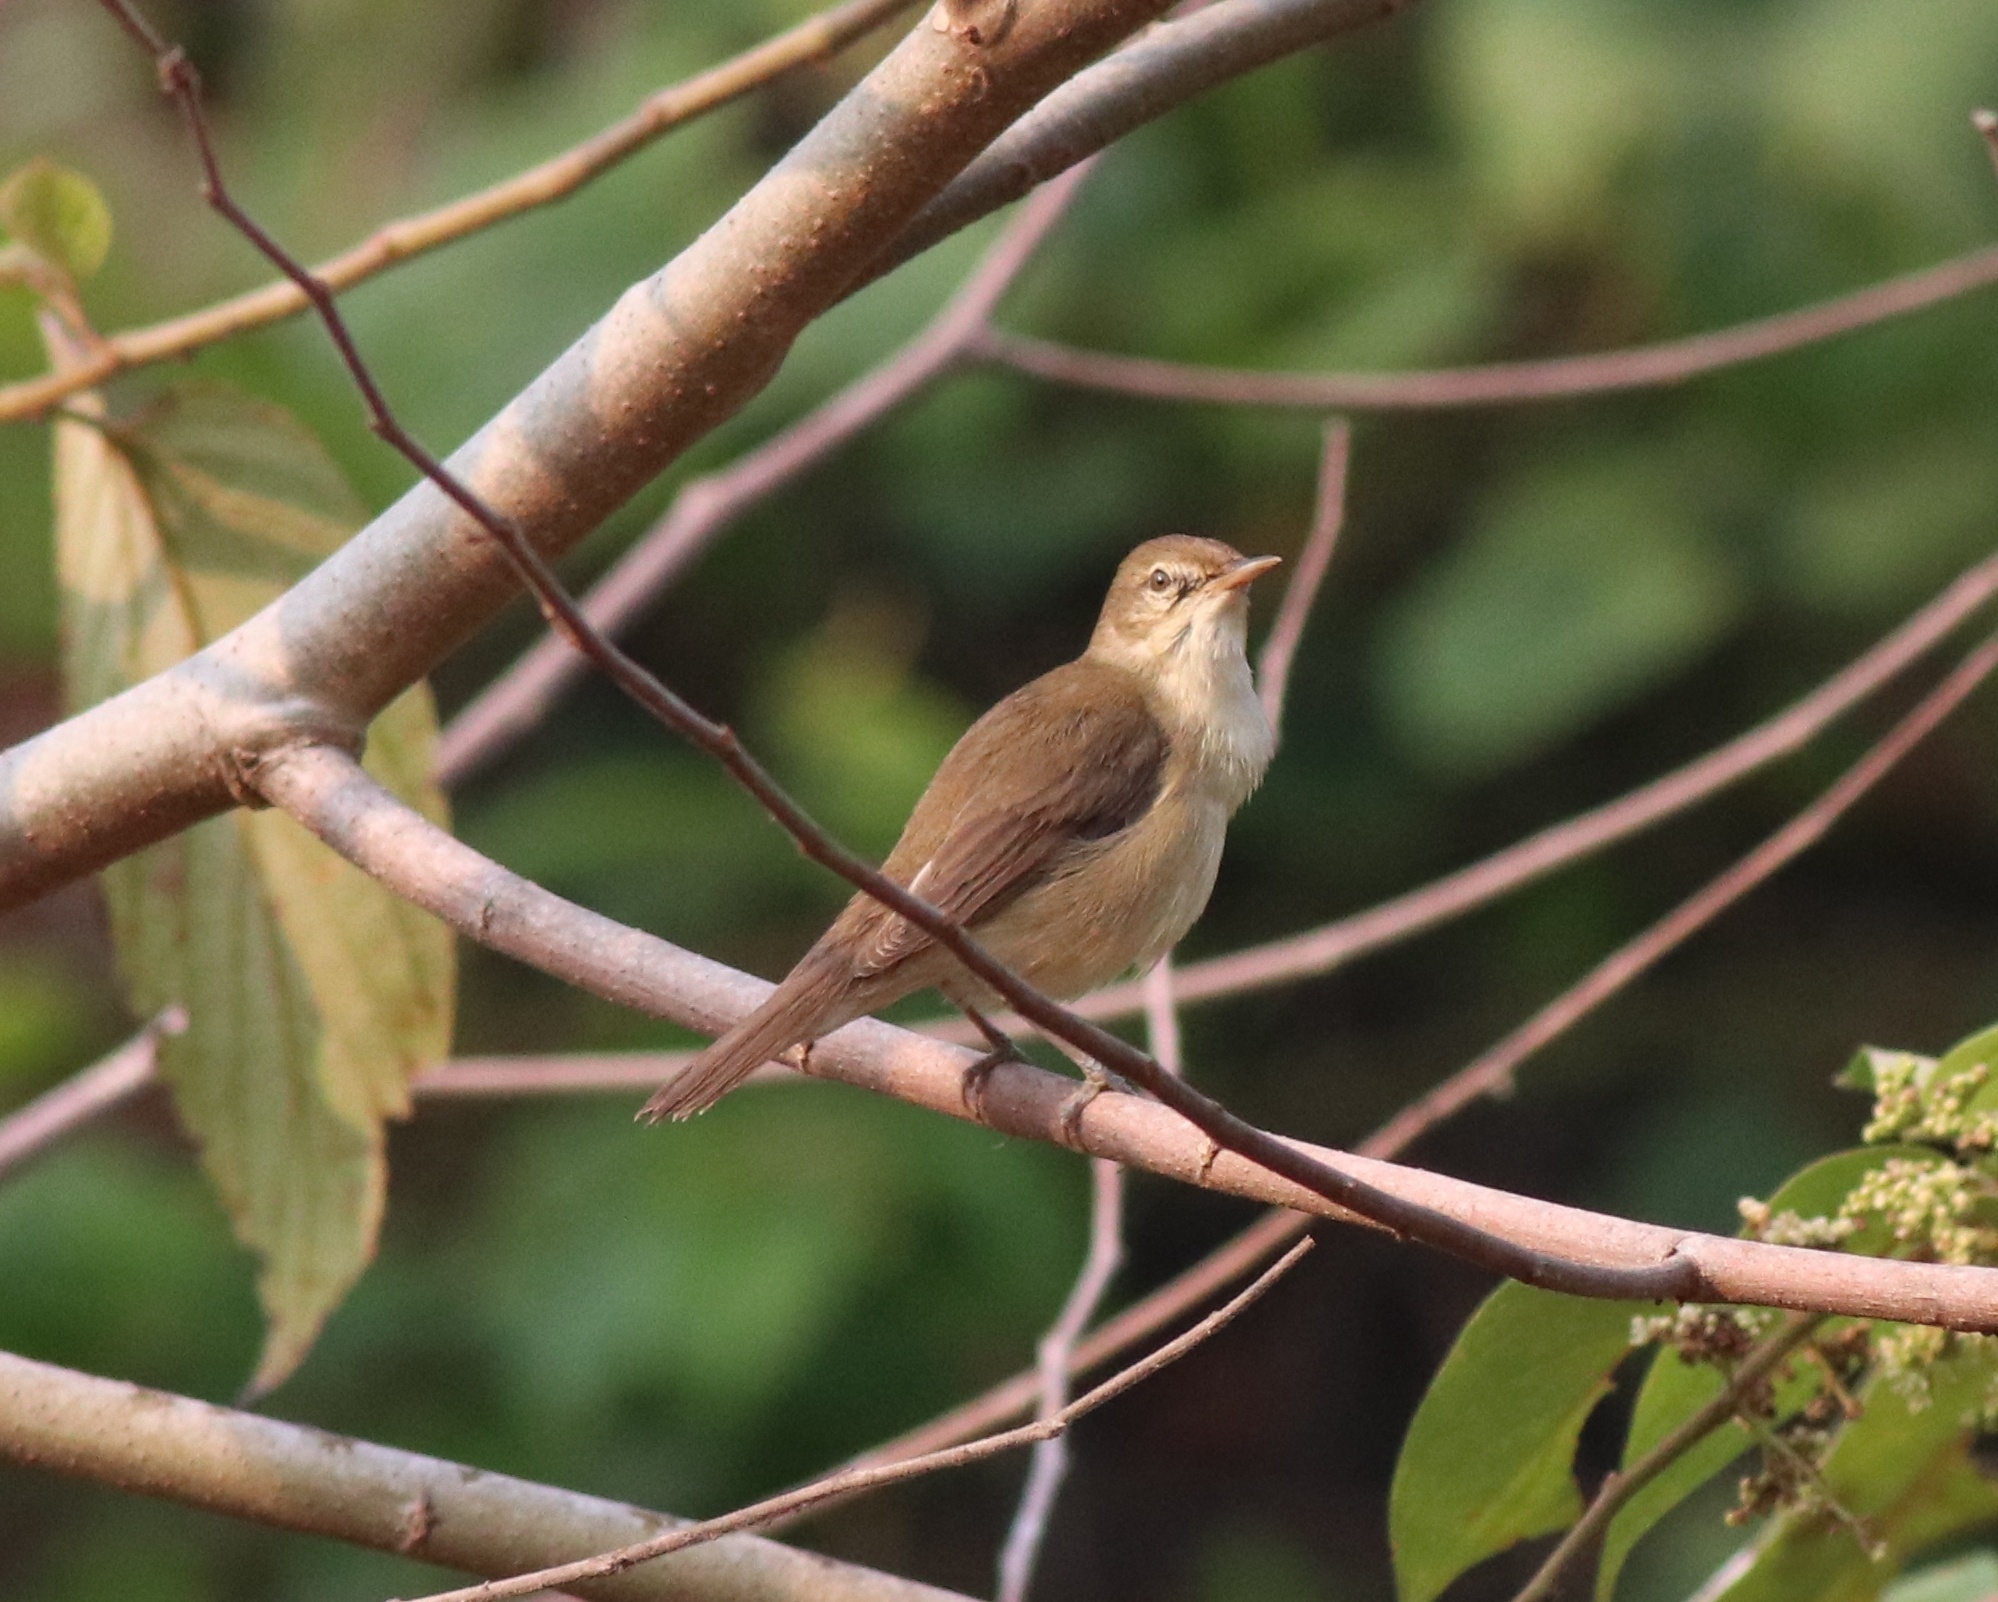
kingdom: Animalia
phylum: Chordata
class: Aves
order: Passeriformes
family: Acrocephalidae
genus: Acrocephalus
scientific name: Acrocephalus dumetorum
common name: Blyth's reed warbler
